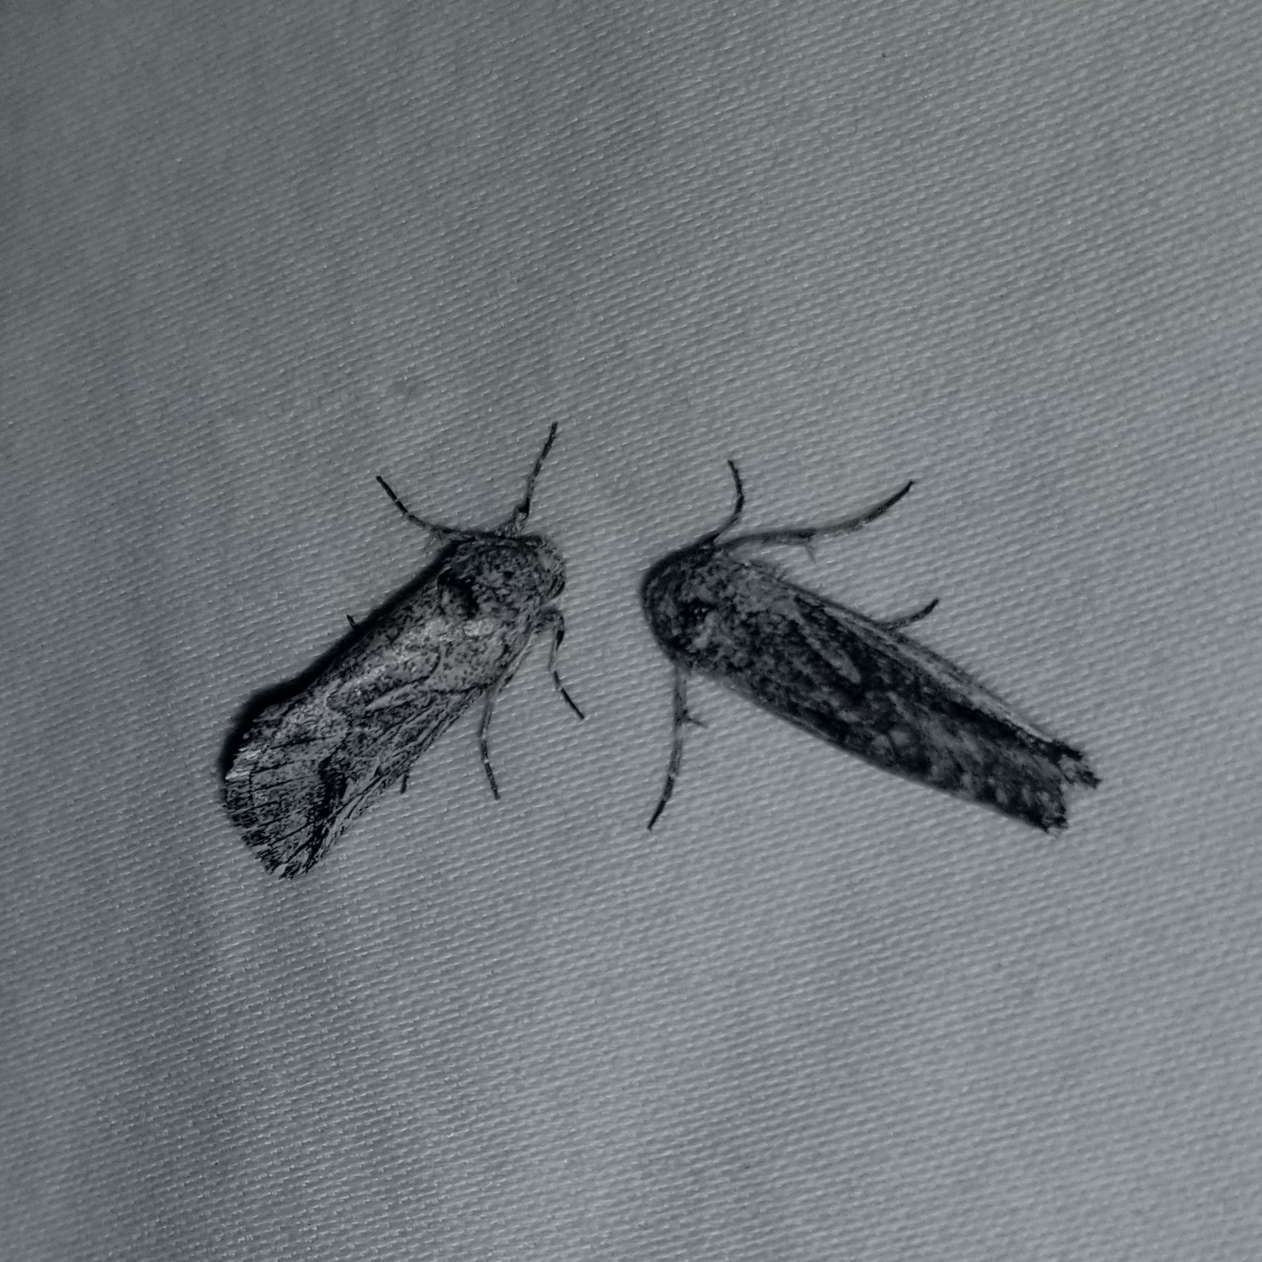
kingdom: Animalia
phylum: Arthropoda
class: Insecta
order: Lepidoptera
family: Noctuidae
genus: Oxycnemis
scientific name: Oxycnemis fusimacula
